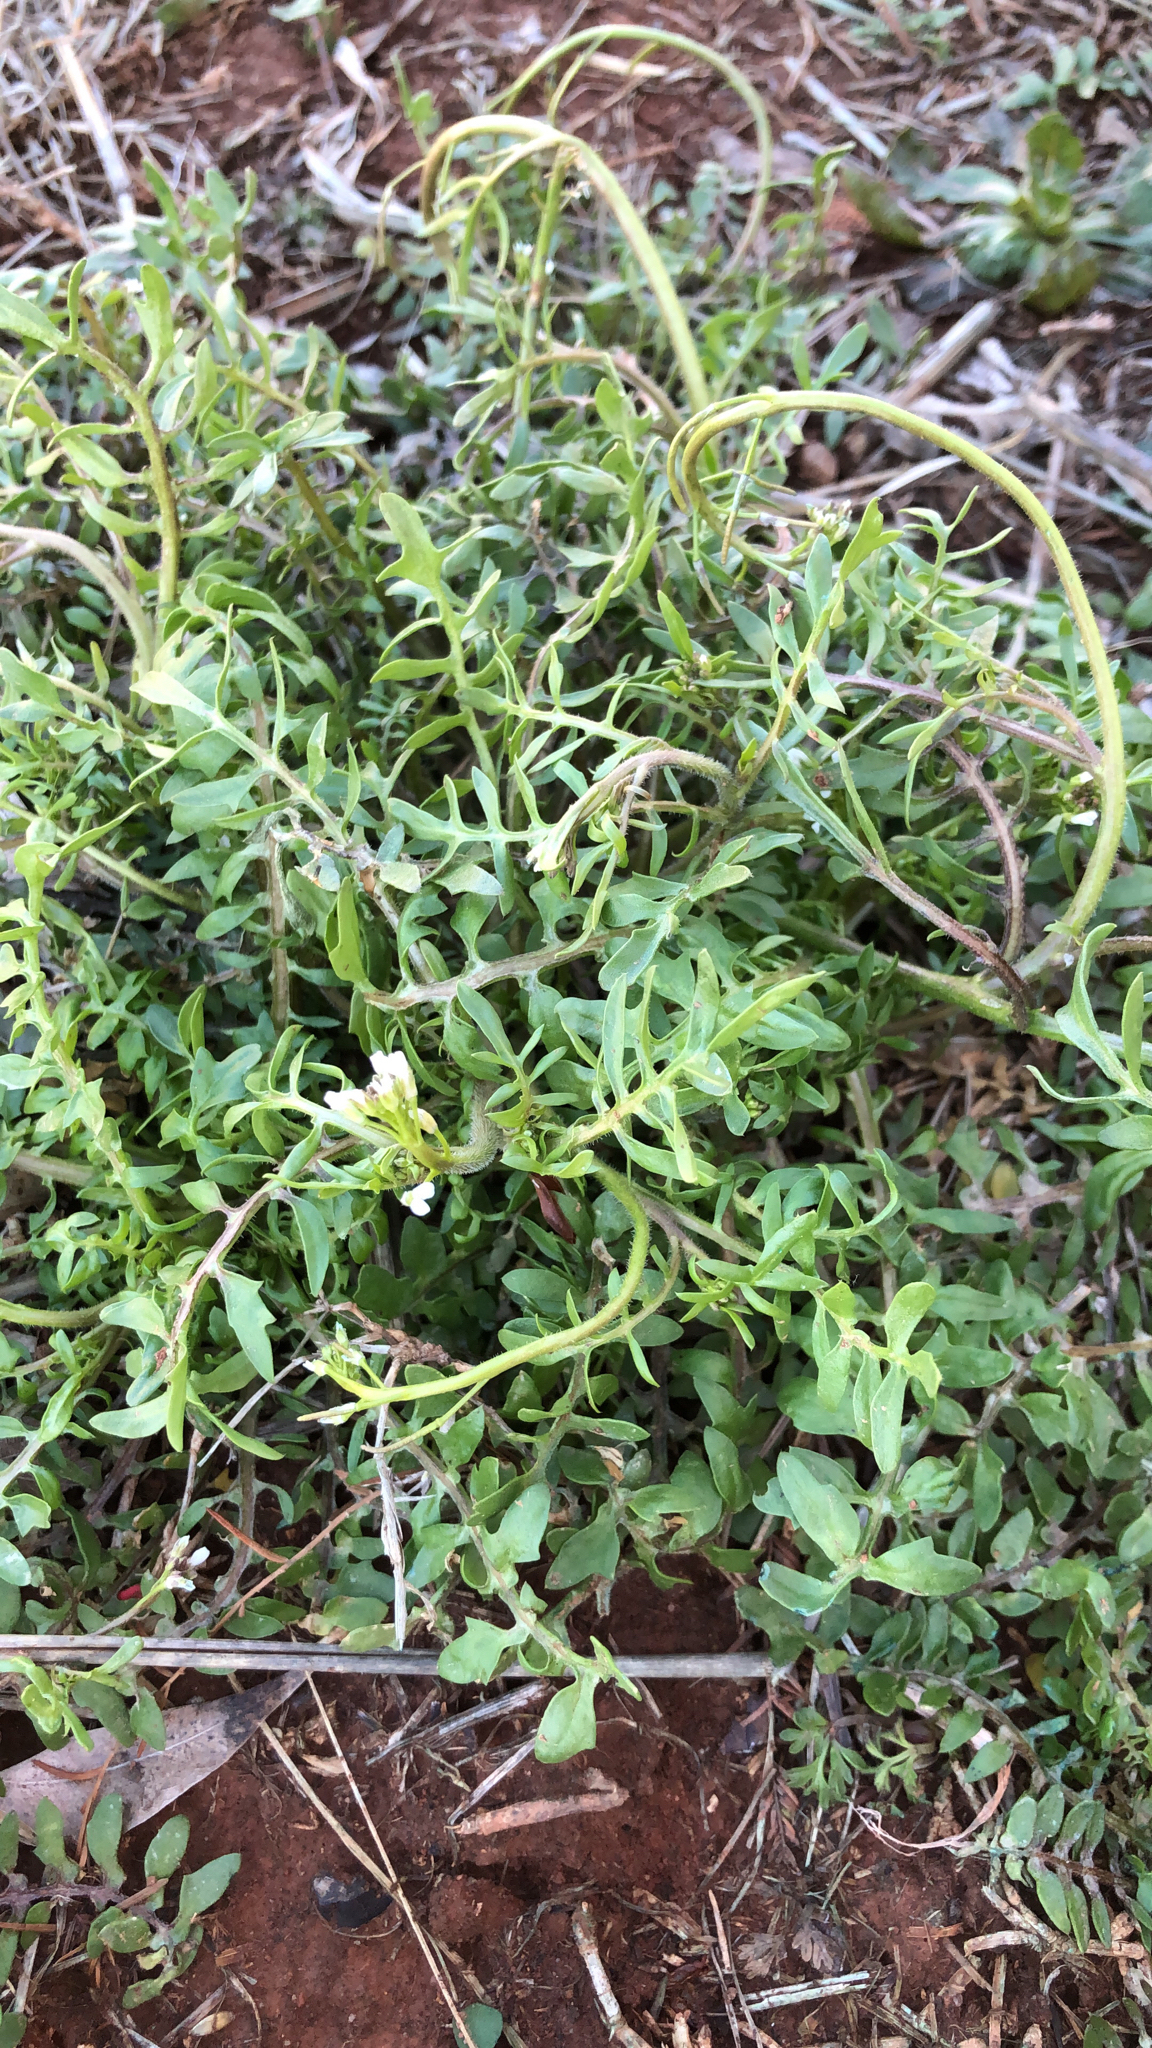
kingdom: Plantae
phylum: Tracheophyta
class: Magnoliopsida
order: Brassicales
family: Brassicaceae
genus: Planodes
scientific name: Planodes virginicum
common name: Virginia cress
